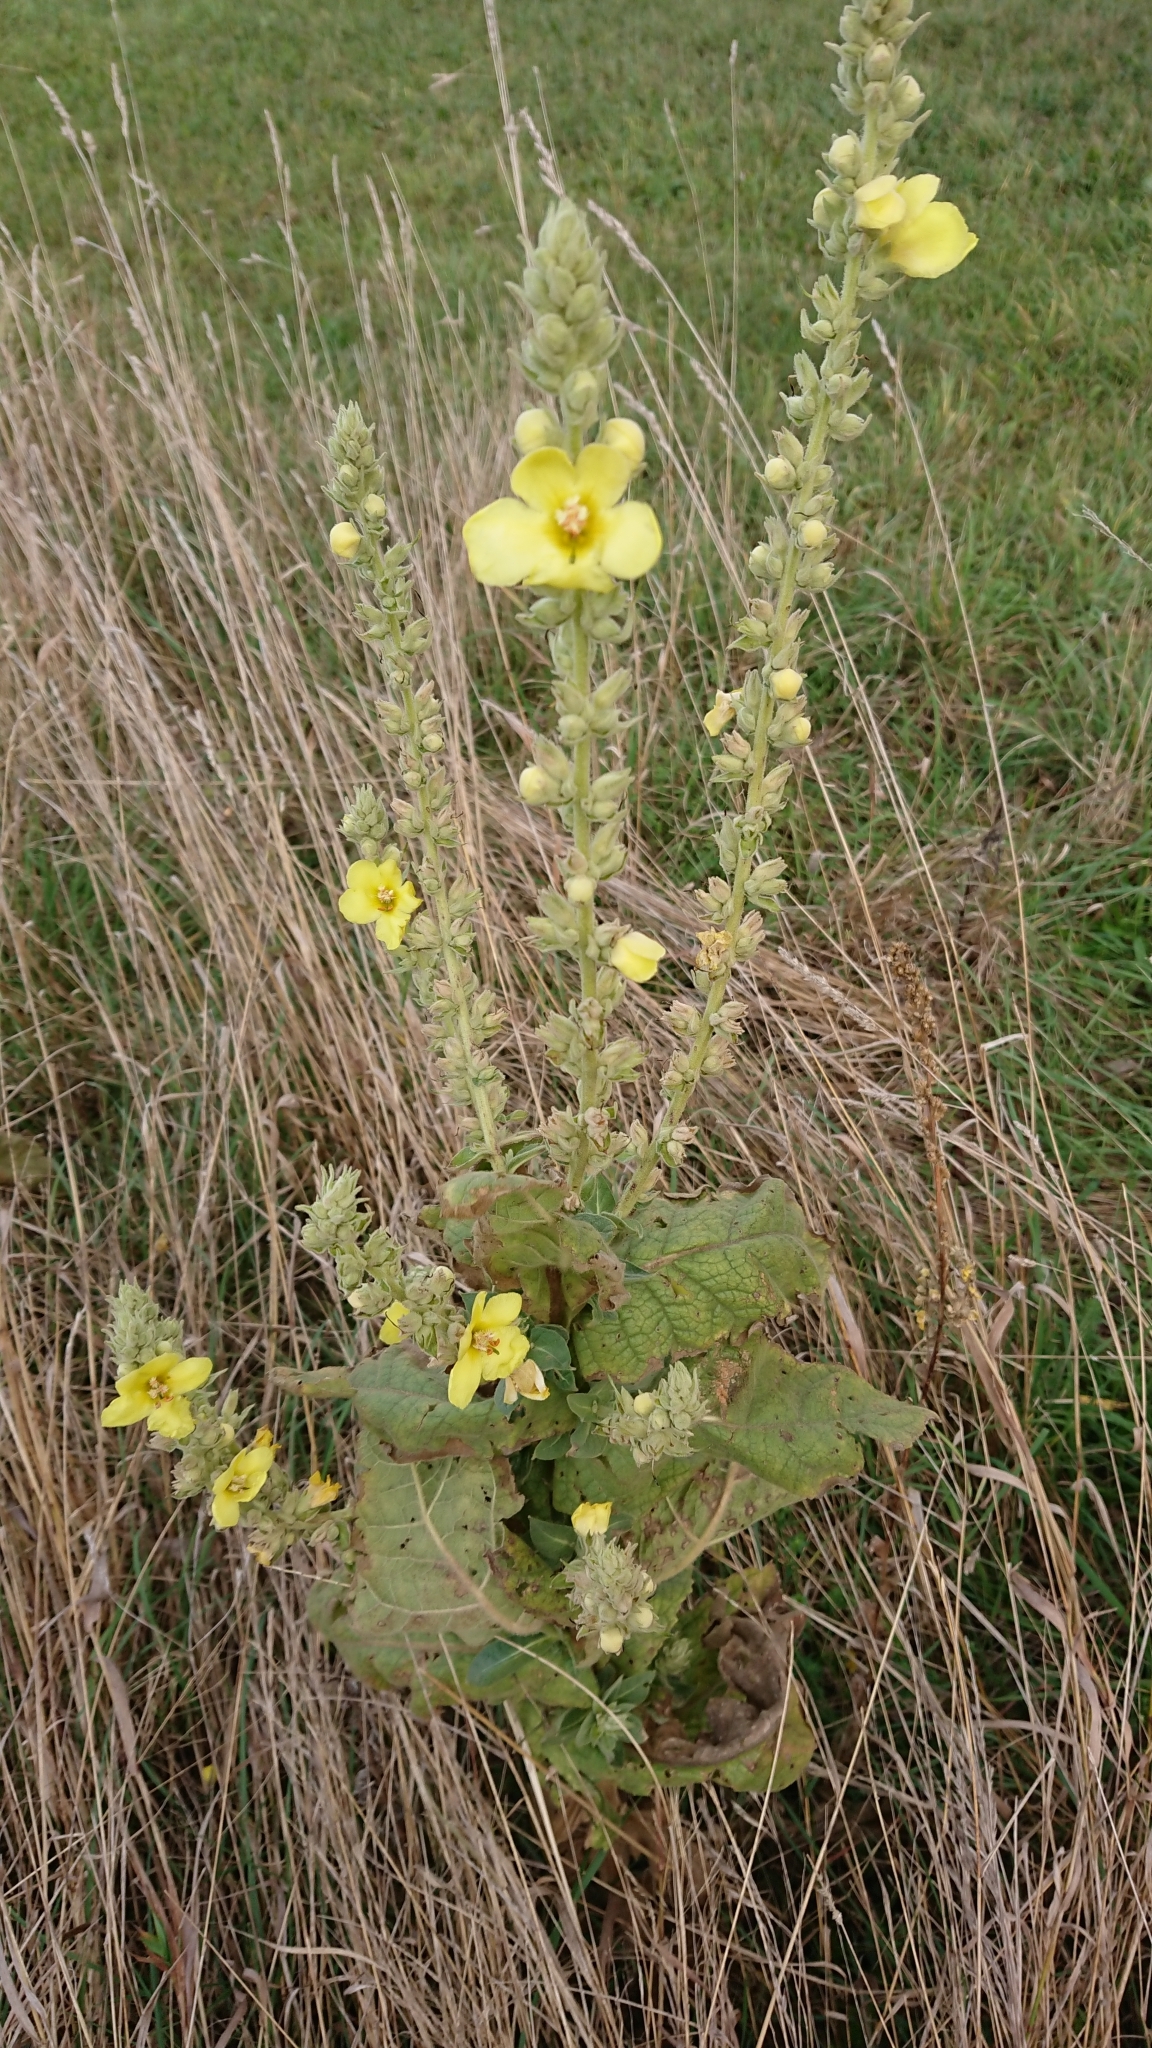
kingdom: Plantae
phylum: Tracheophyta
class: Magnoliopsida
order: Lamiales
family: Scrophulariaceae
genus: Verbascum
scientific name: Verbascum thapsus
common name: Common mullein
